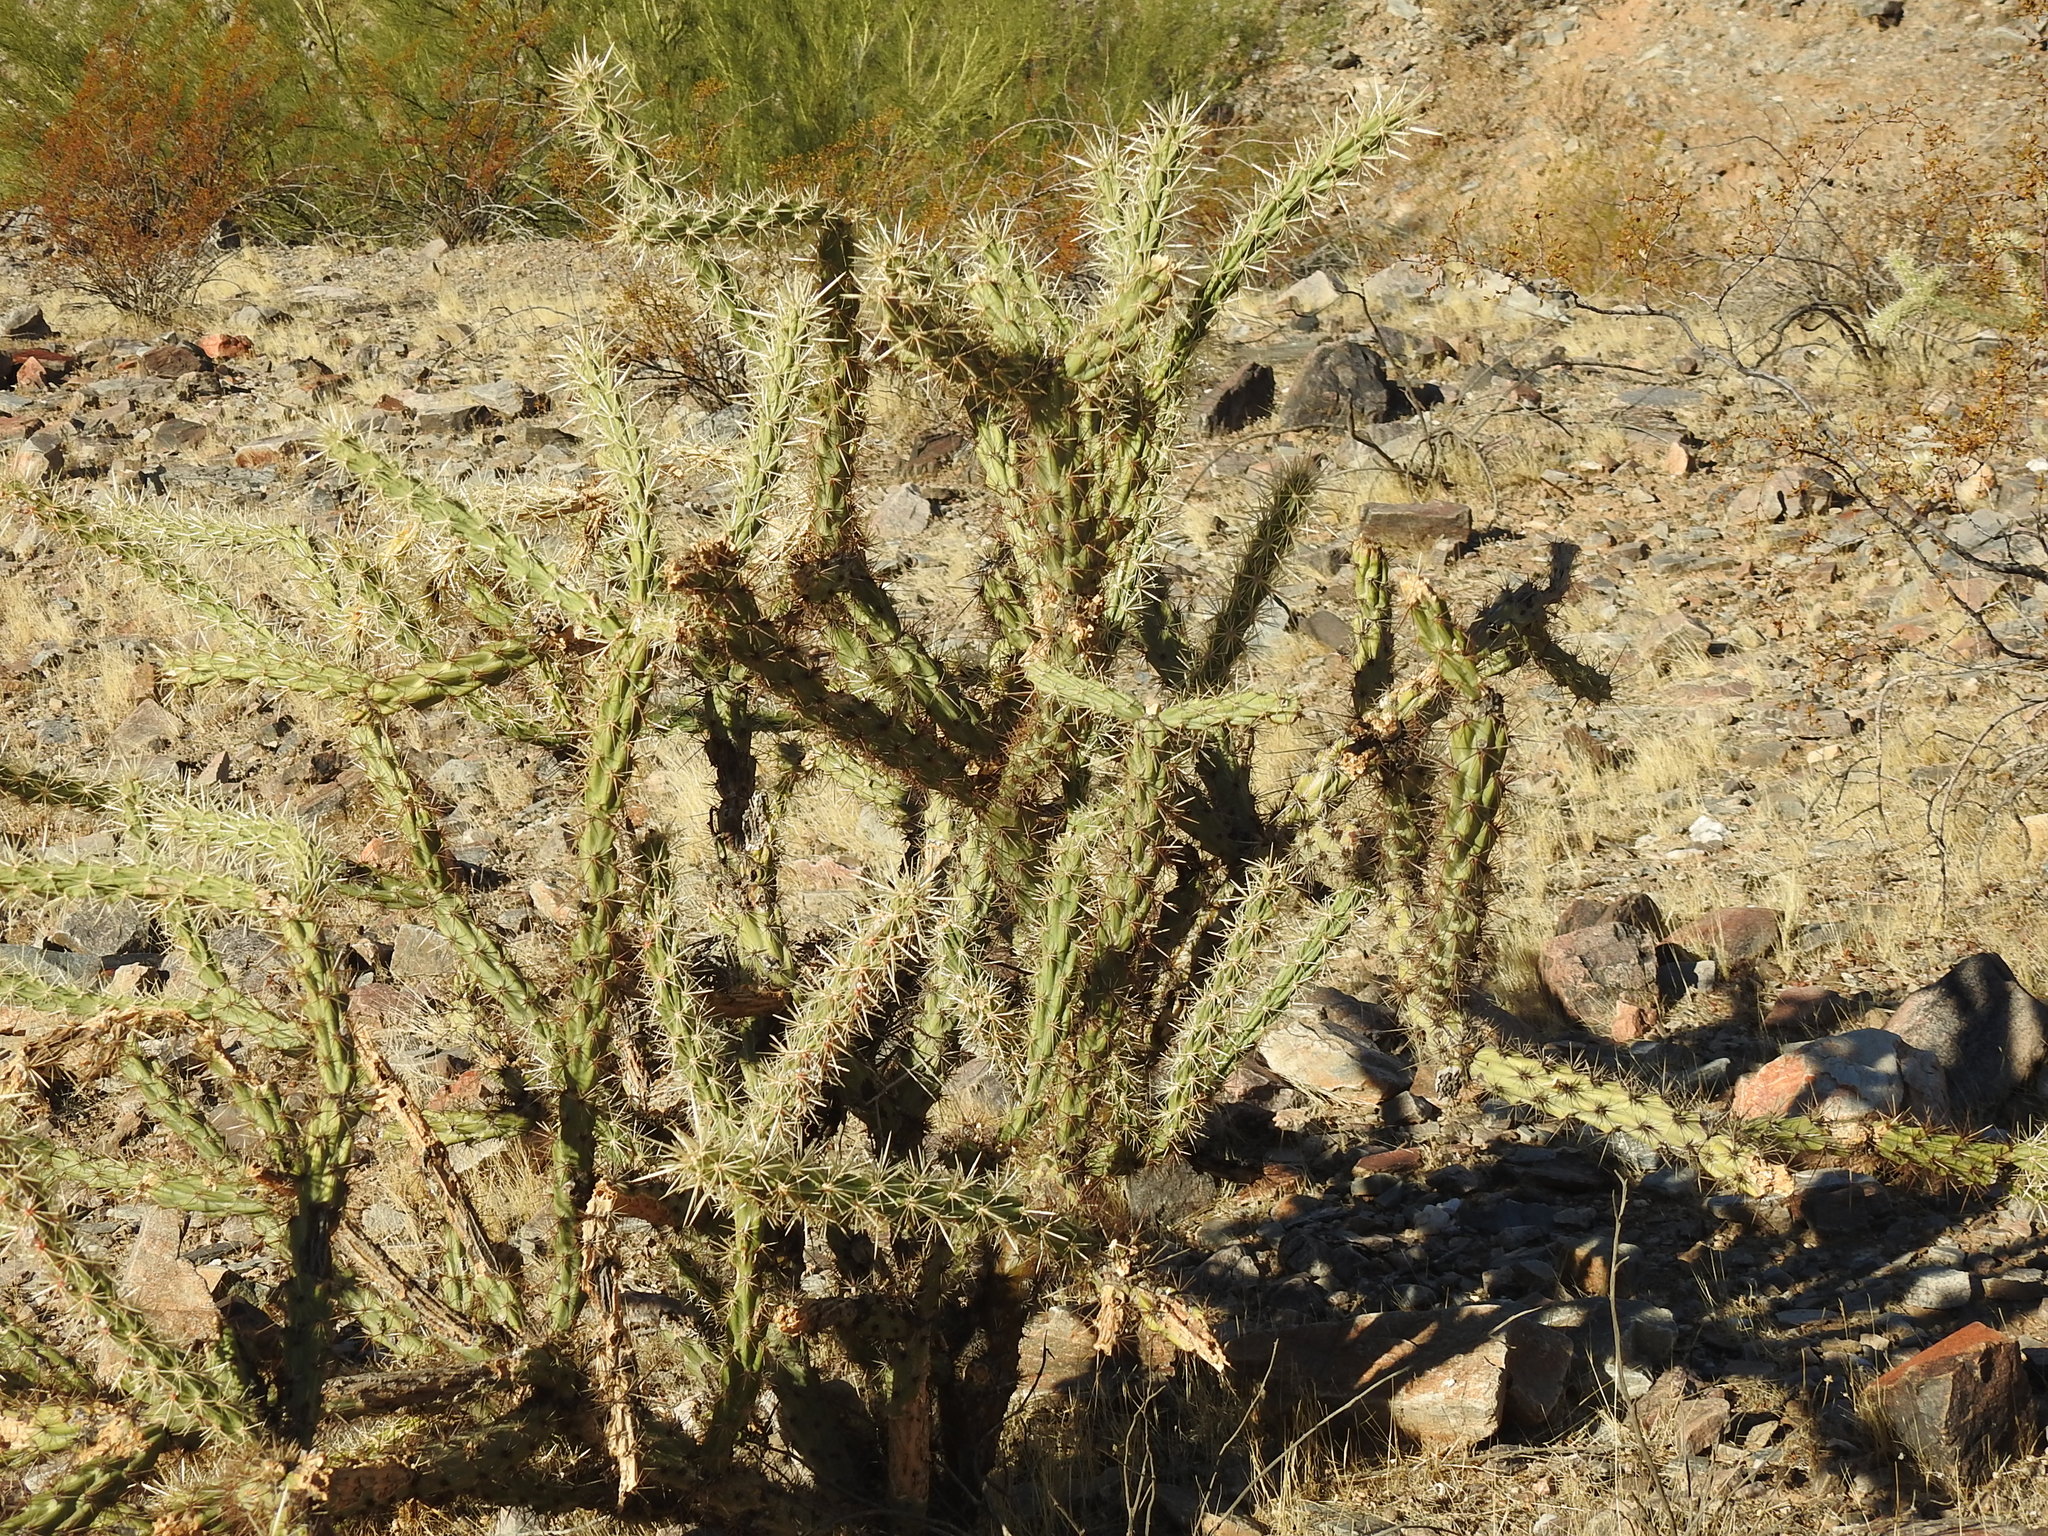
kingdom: Plantae
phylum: Tracheophyta
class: Magnoliopsida
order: Caryophyllales
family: Cactaceae
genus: Cylindropuntia
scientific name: Cylindropuntia acanthocarpa
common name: Buckhorn cholla
